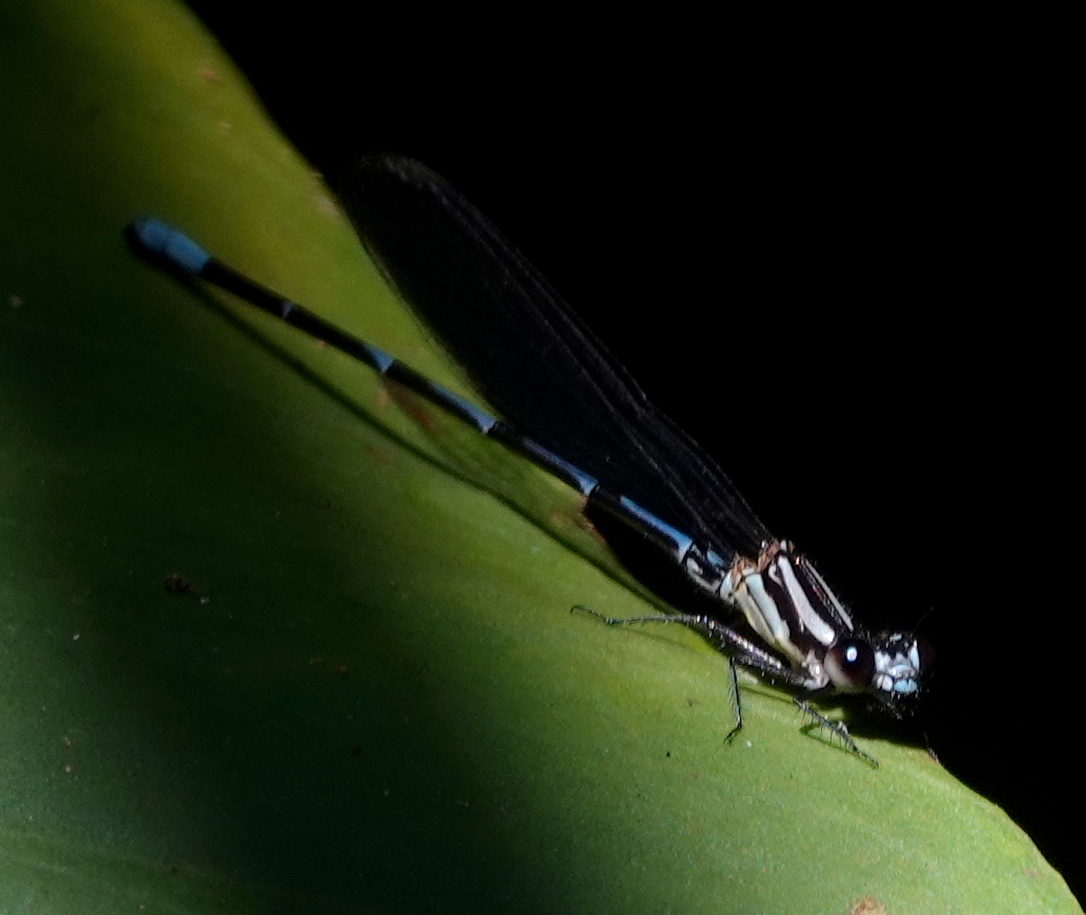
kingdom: Animalia
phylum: Arthropoda
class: Insecta
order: Odonata
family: Coenagrionidae
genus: Argia
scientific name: Argia oculata
